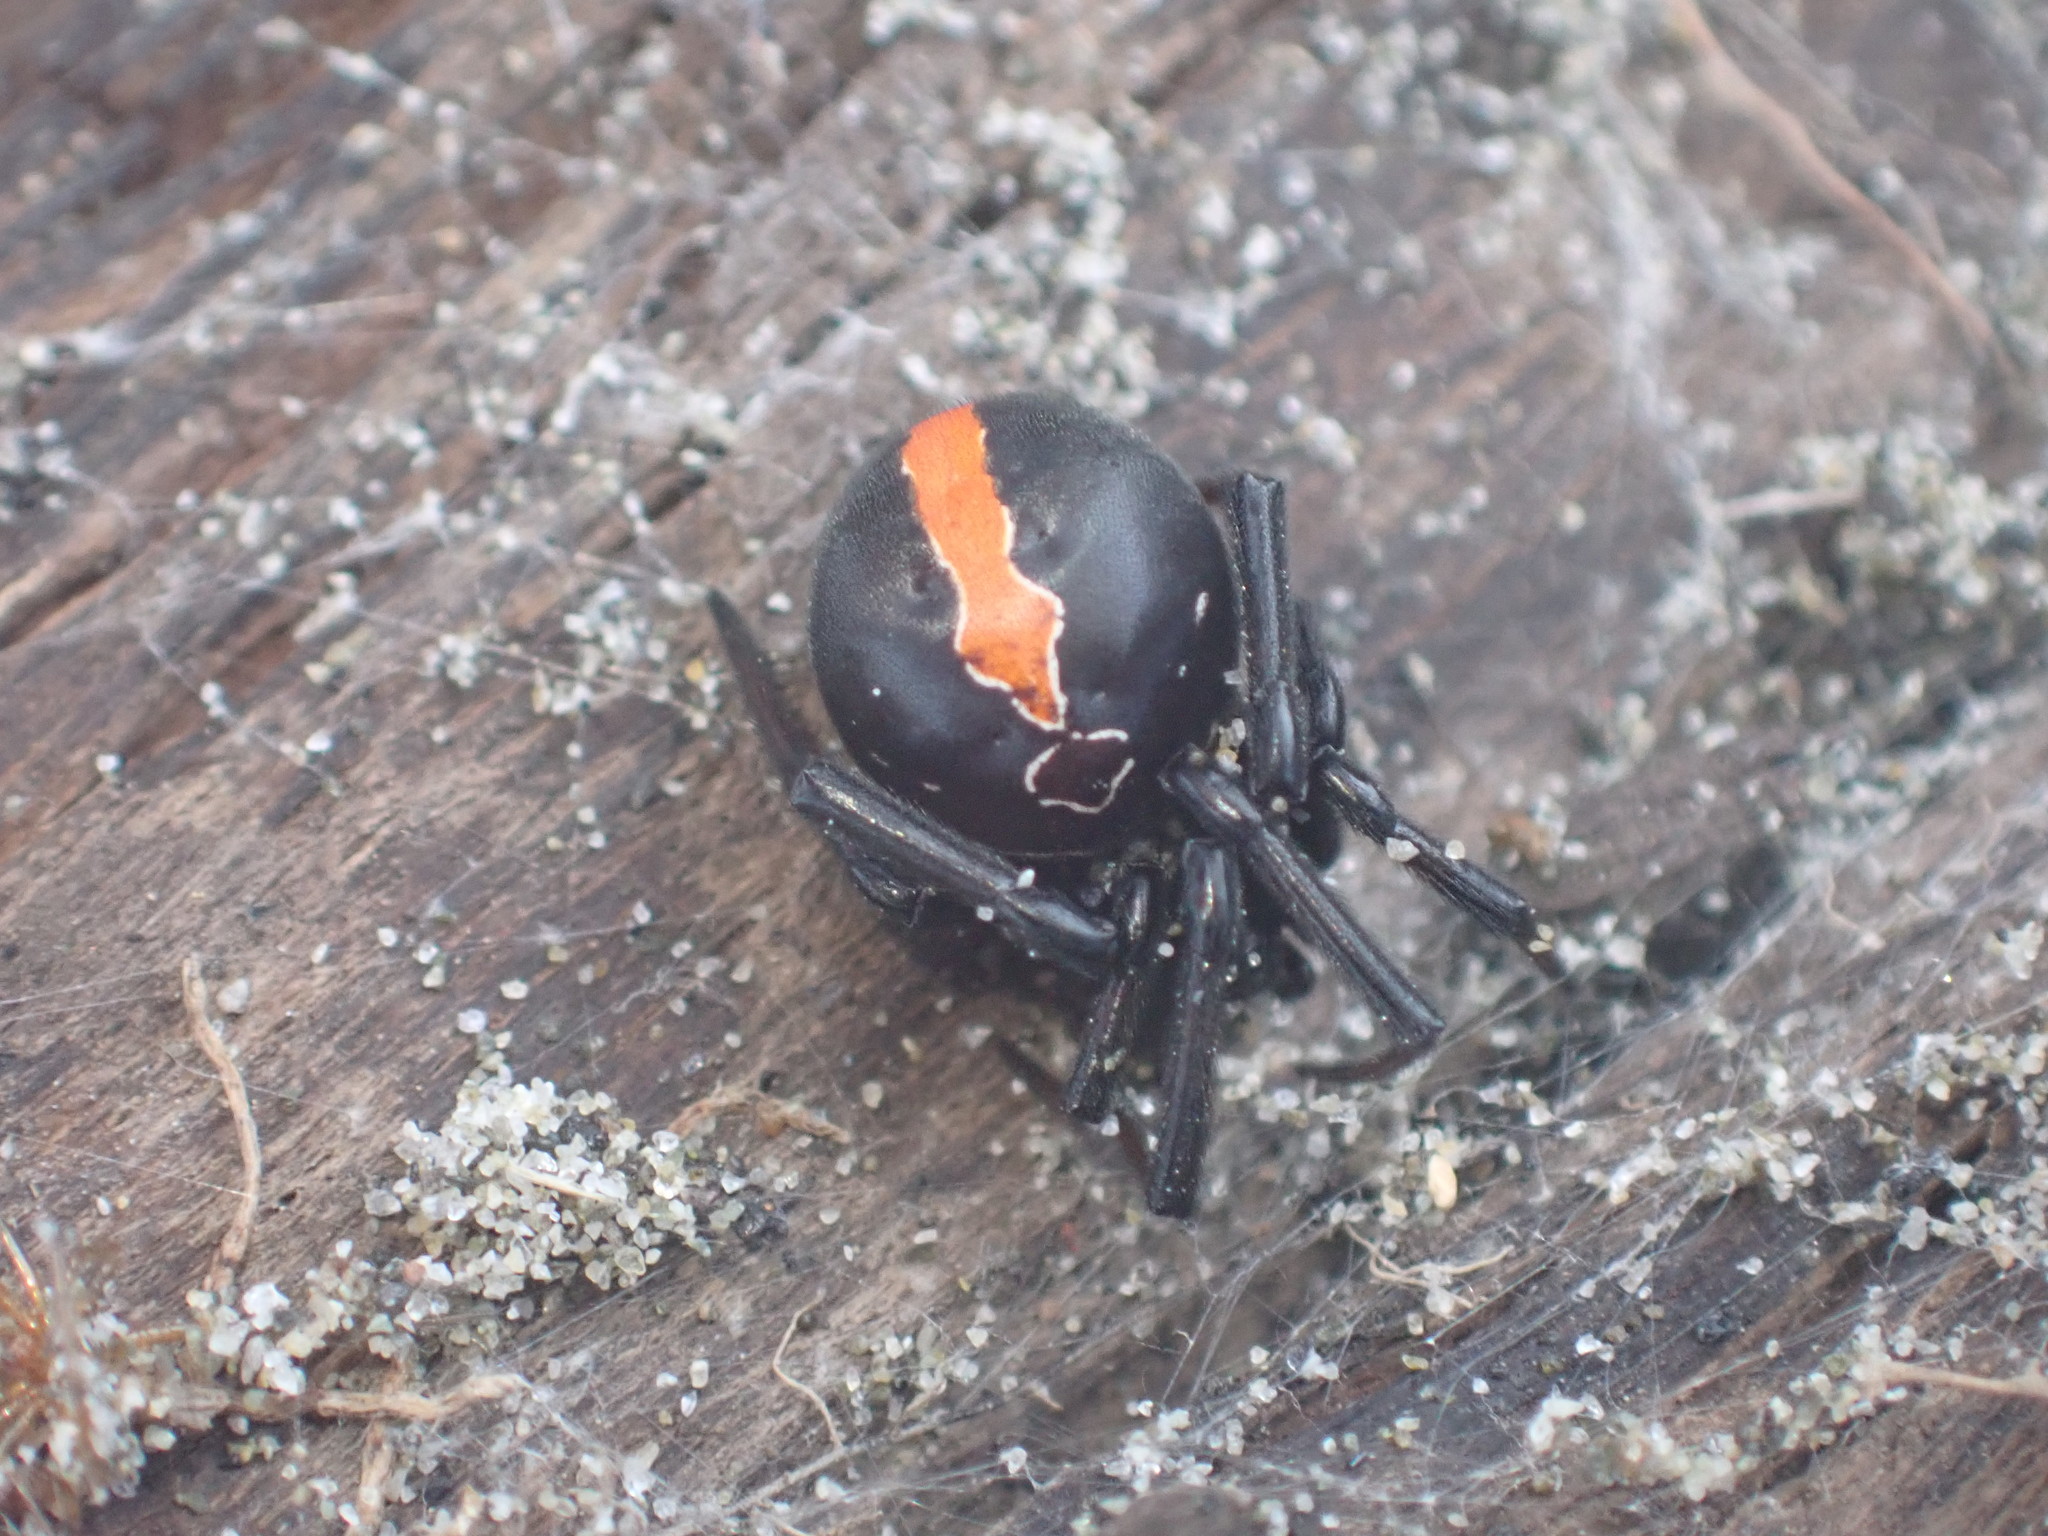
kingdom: Animalia
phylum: Arthropoda
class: Arachnida
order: Araneae
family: Theridiidae
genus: Latrodectus
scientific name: Latrodectus katipo
